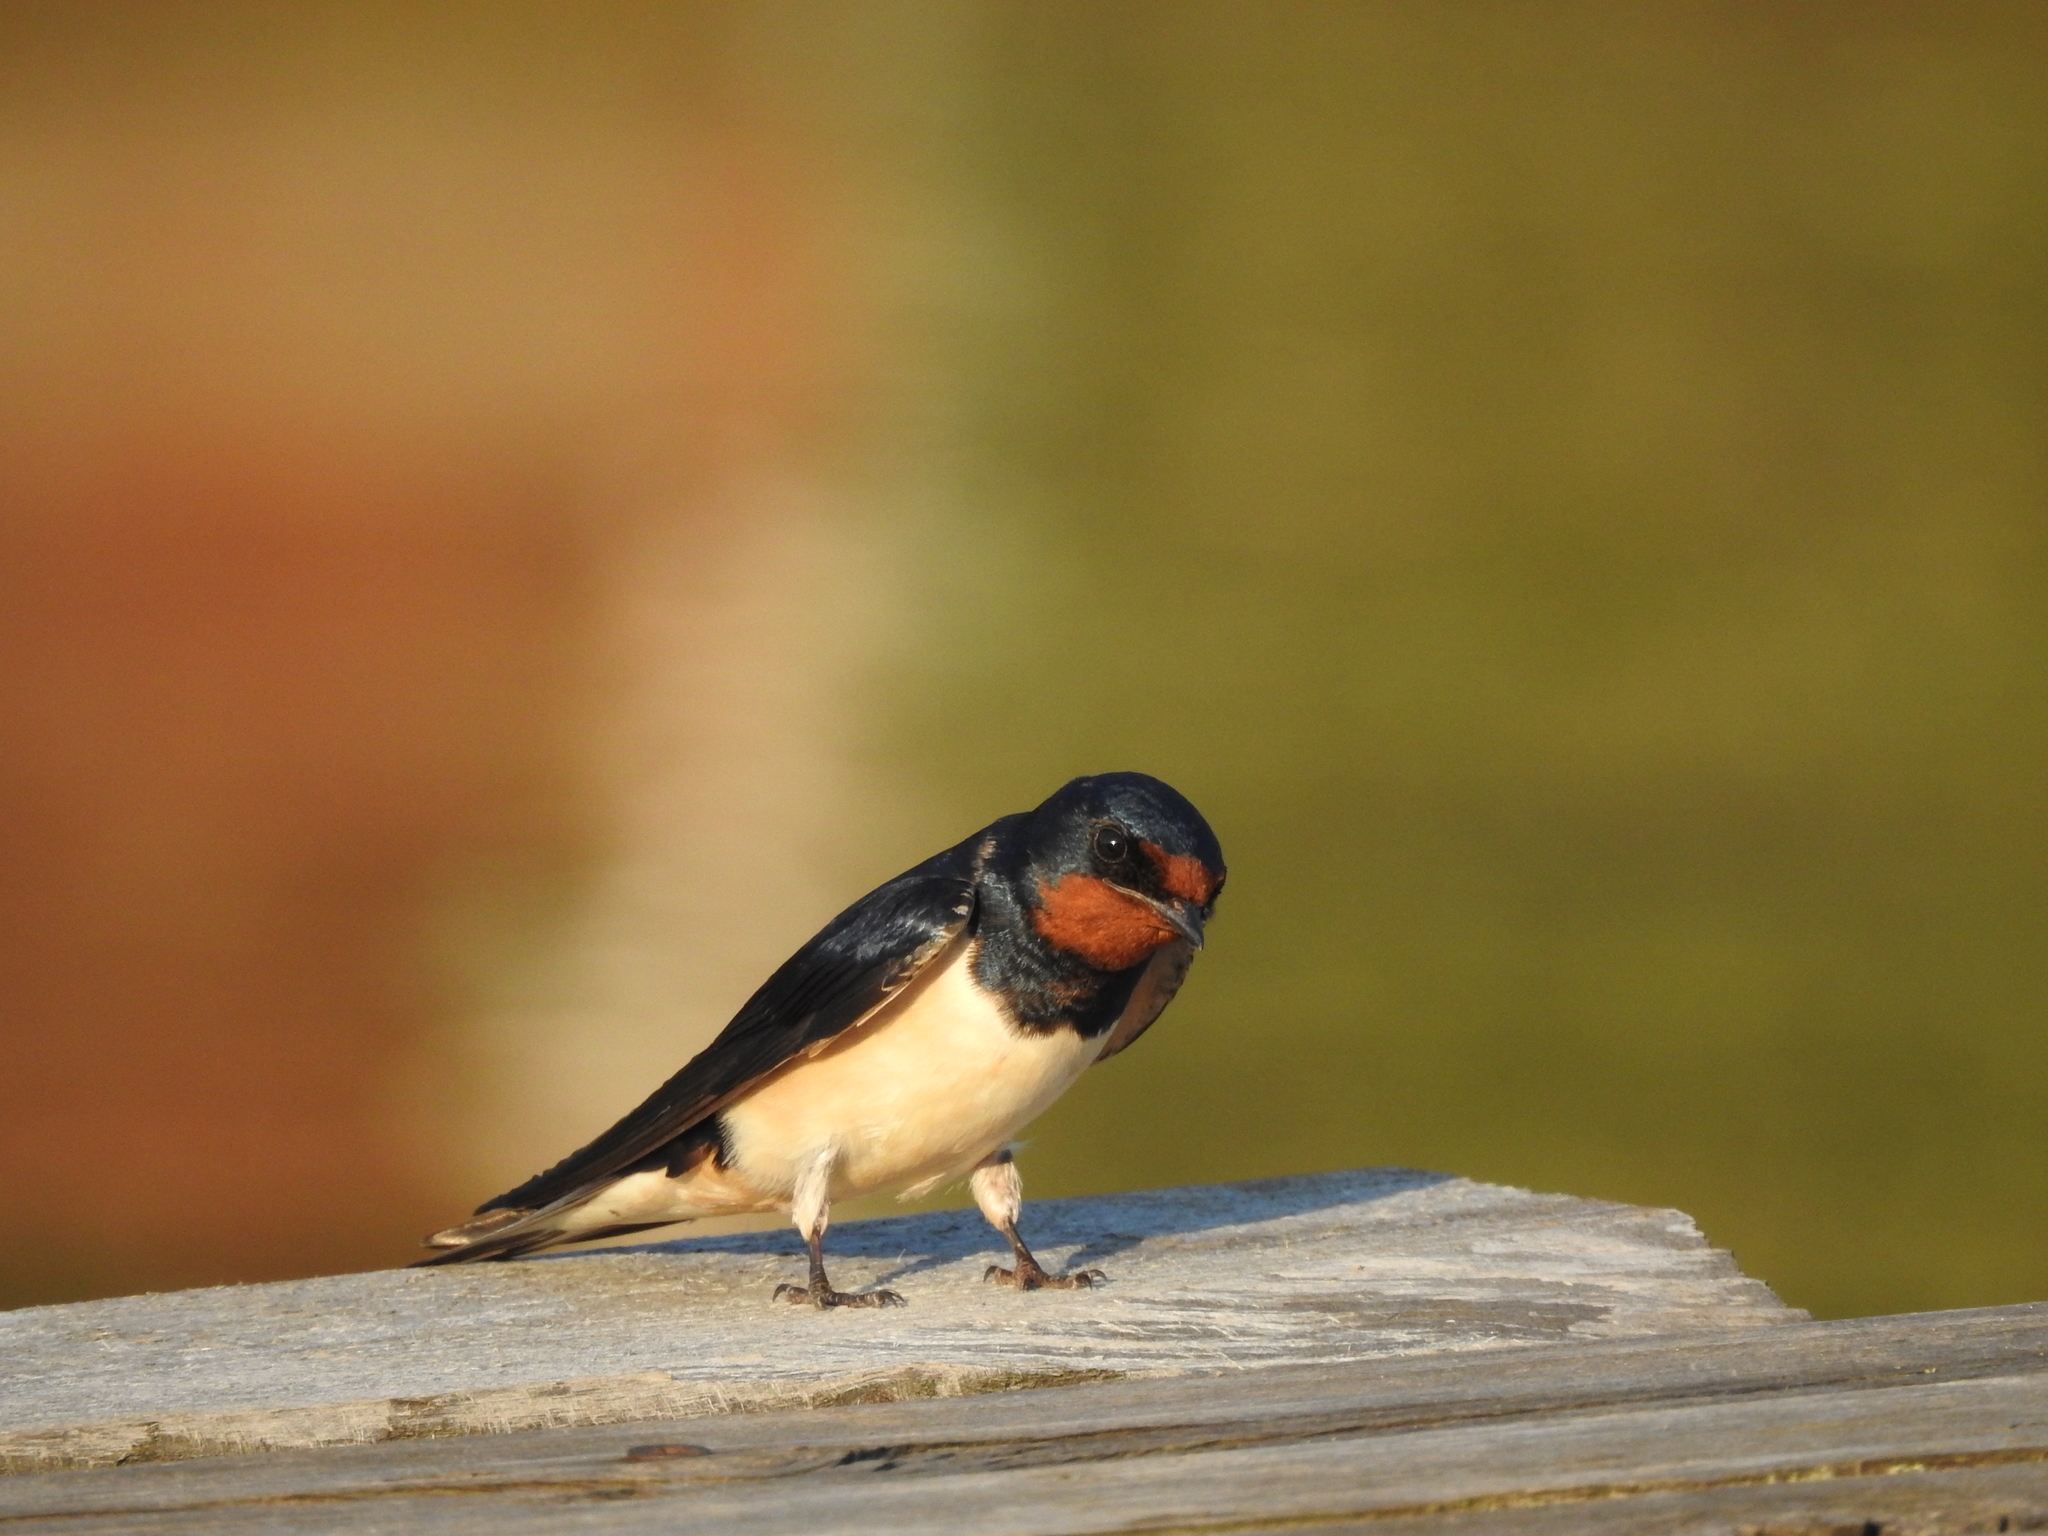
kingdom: Animalia
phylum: Chordata
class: Aves
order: Passeriformes
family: Hirundinidae
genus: Hirundo
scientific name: Hirundo rustica
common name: Barn swallow
